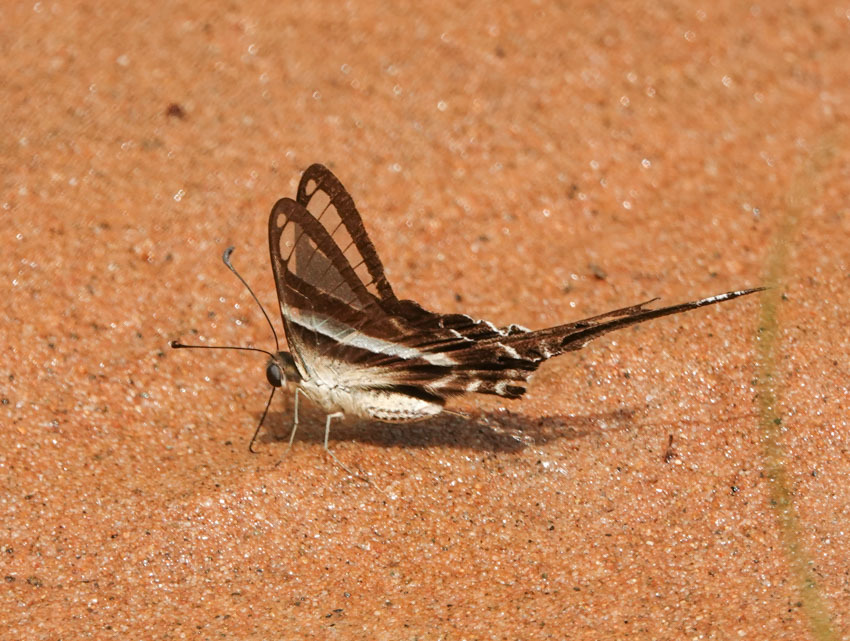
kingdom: Animalia
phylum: Arthropoda
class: Insecta
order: Lepidoptera
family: Papilionidae
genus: Lamproptera
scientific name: Lamproptera curius
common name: White dragontail
